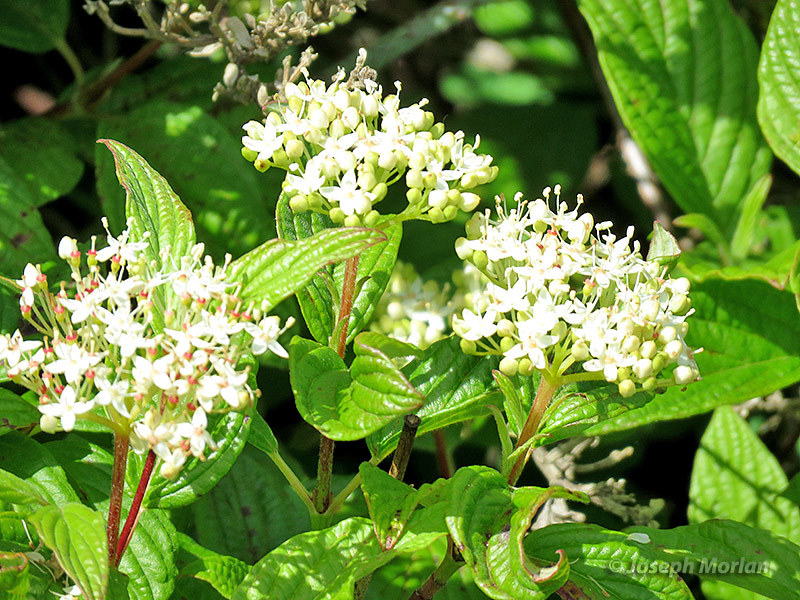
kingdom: Plantae
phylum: Tracheophyta
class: Magnoliopsida
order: Cornales
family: Cornaceae
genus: Cornus
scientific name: Cornus sericea
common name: Red-osier dogwood
